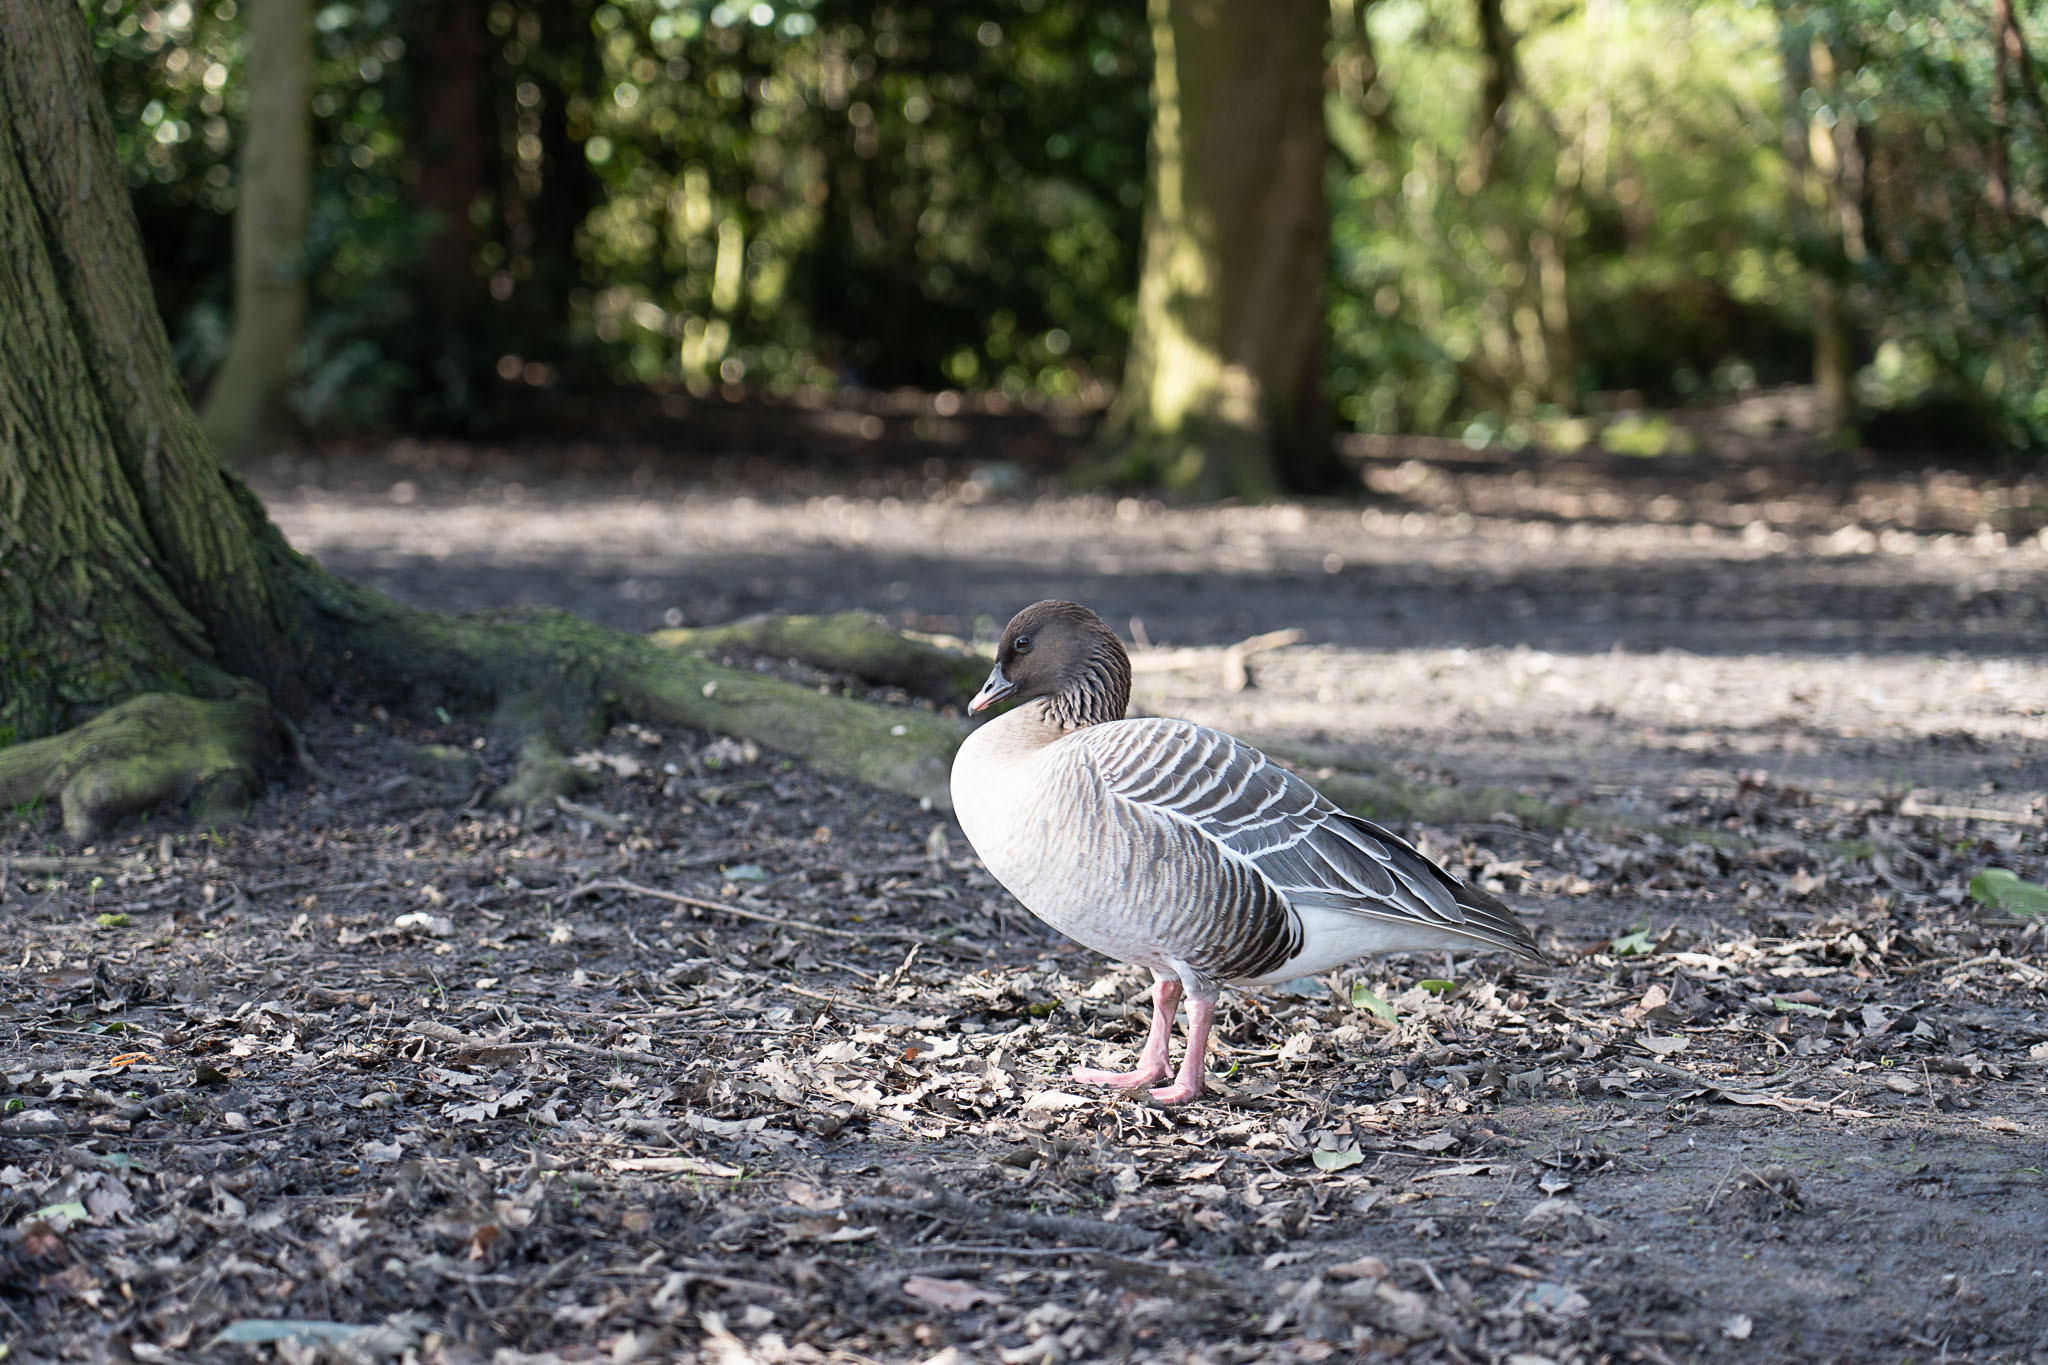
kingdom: Animalia
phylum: Chordata
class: Aves
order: Anseriformes
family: Anatidae
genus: Anser
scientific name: Anser brachyrhynchus
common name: Pink-footed goose
